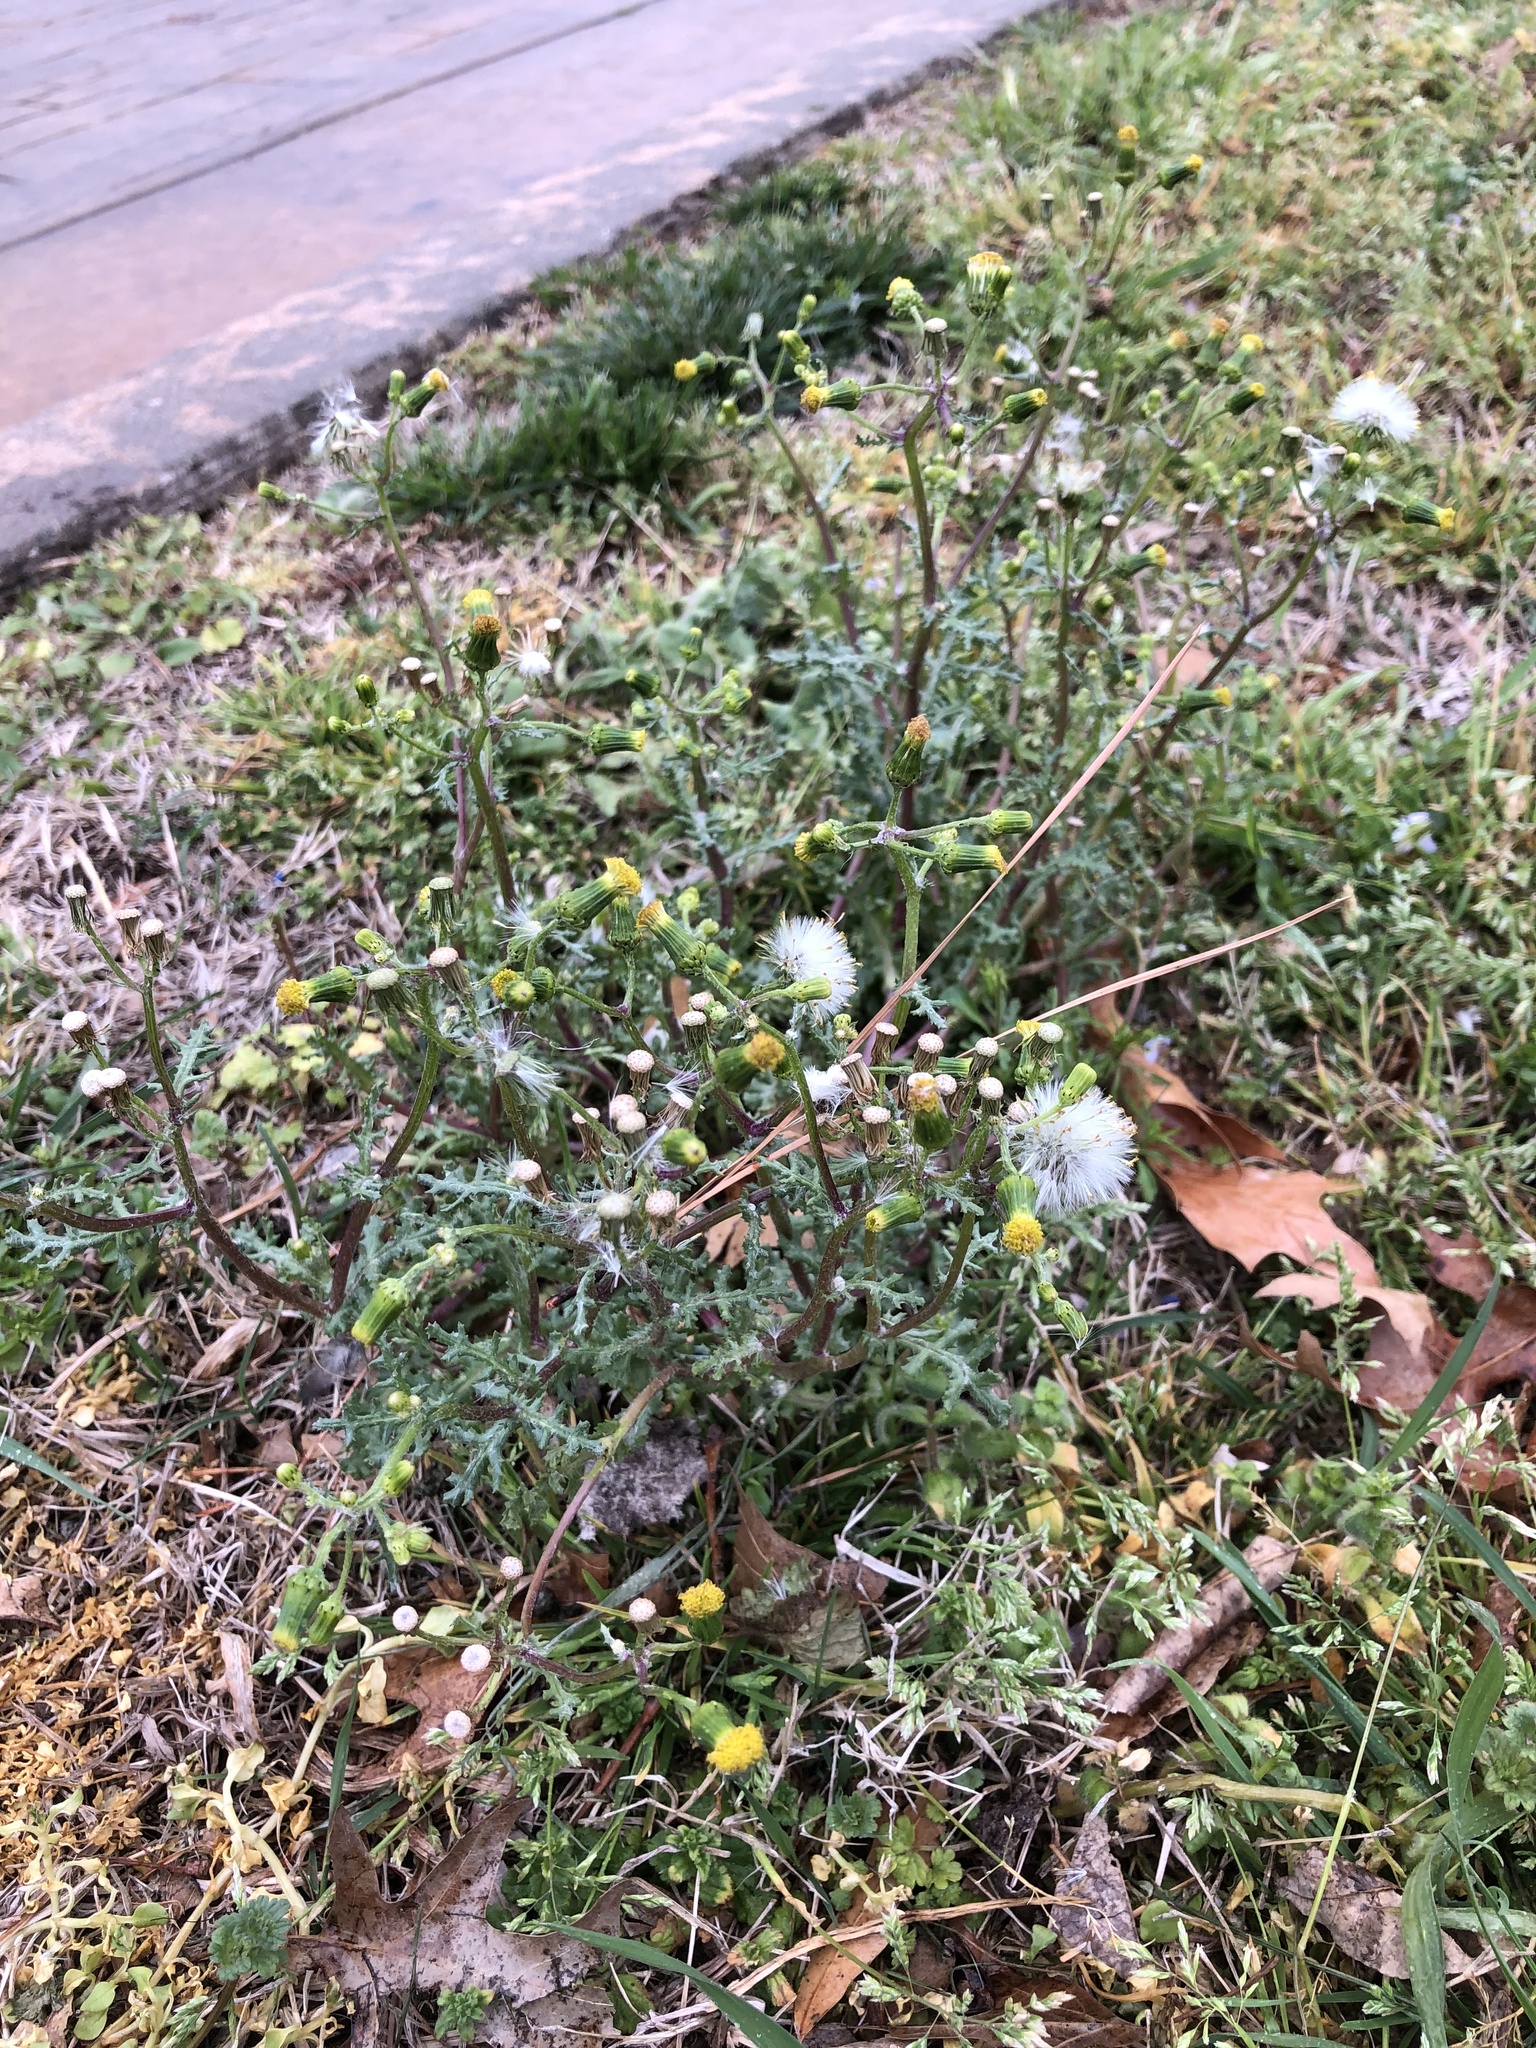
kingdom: Plantae
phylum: Tracheophyta
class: Magnoliopsida
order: Asterales
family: Asteraceae
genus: Senecio
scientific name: Senecio vulgaris
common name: Old-man-in-the-spring
